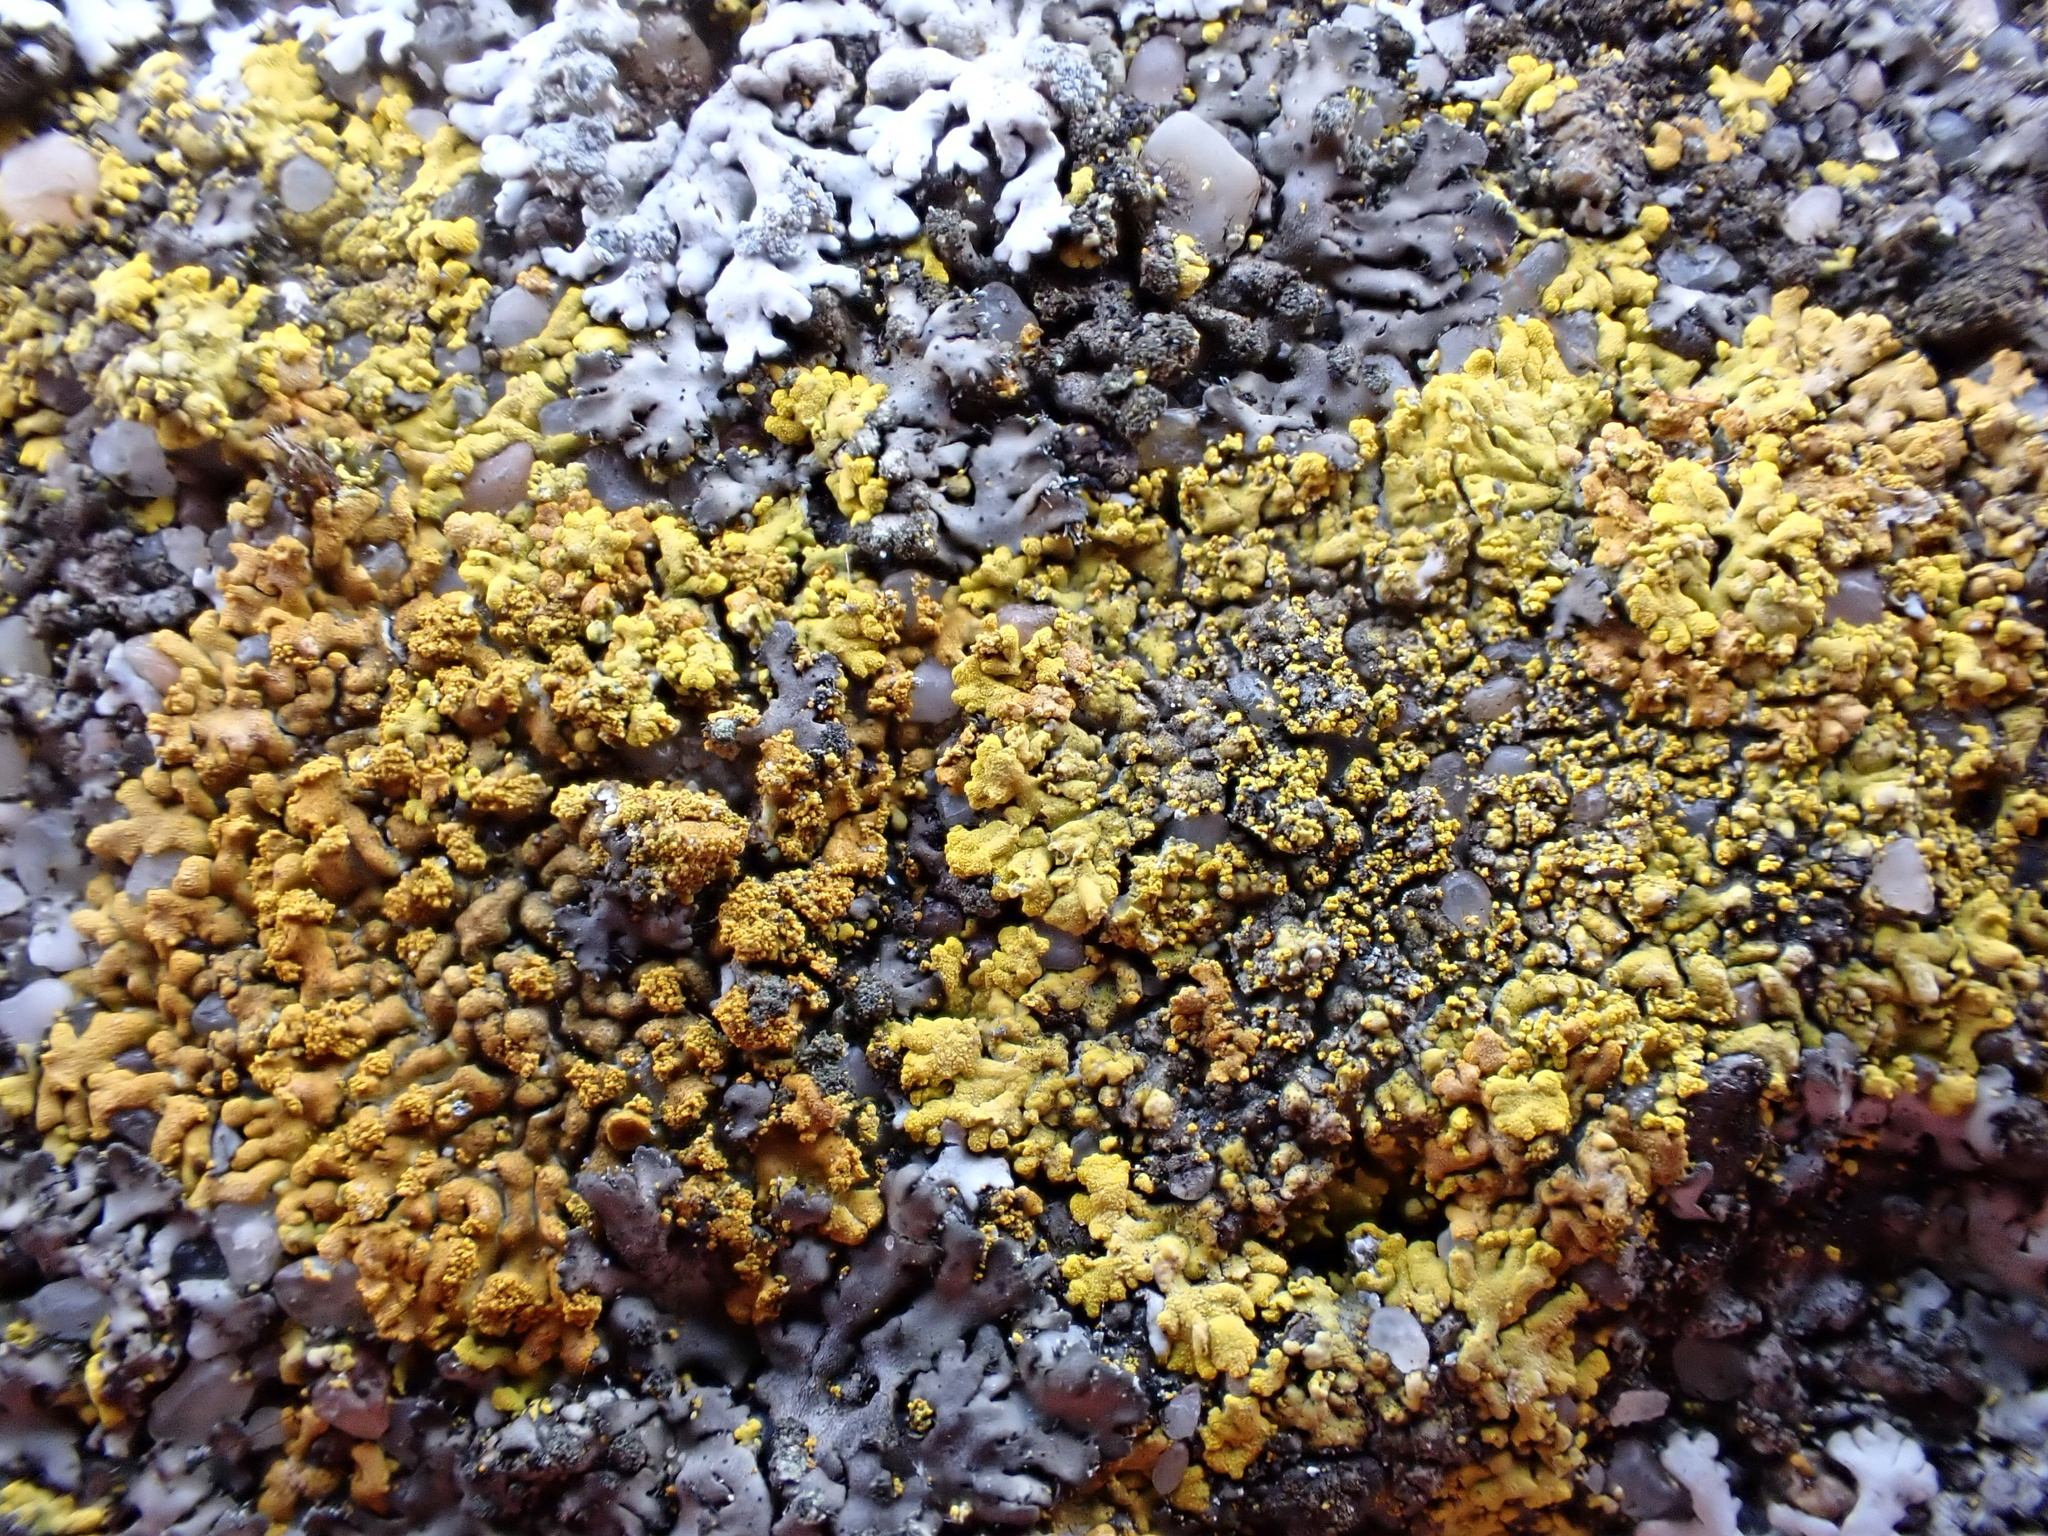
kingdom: Fungi
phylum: Ascomycota
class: Lecanoromycetes
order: Teloschistales
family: Teloschistaceae
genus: Calogaya
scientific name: Calogaya decipiens
